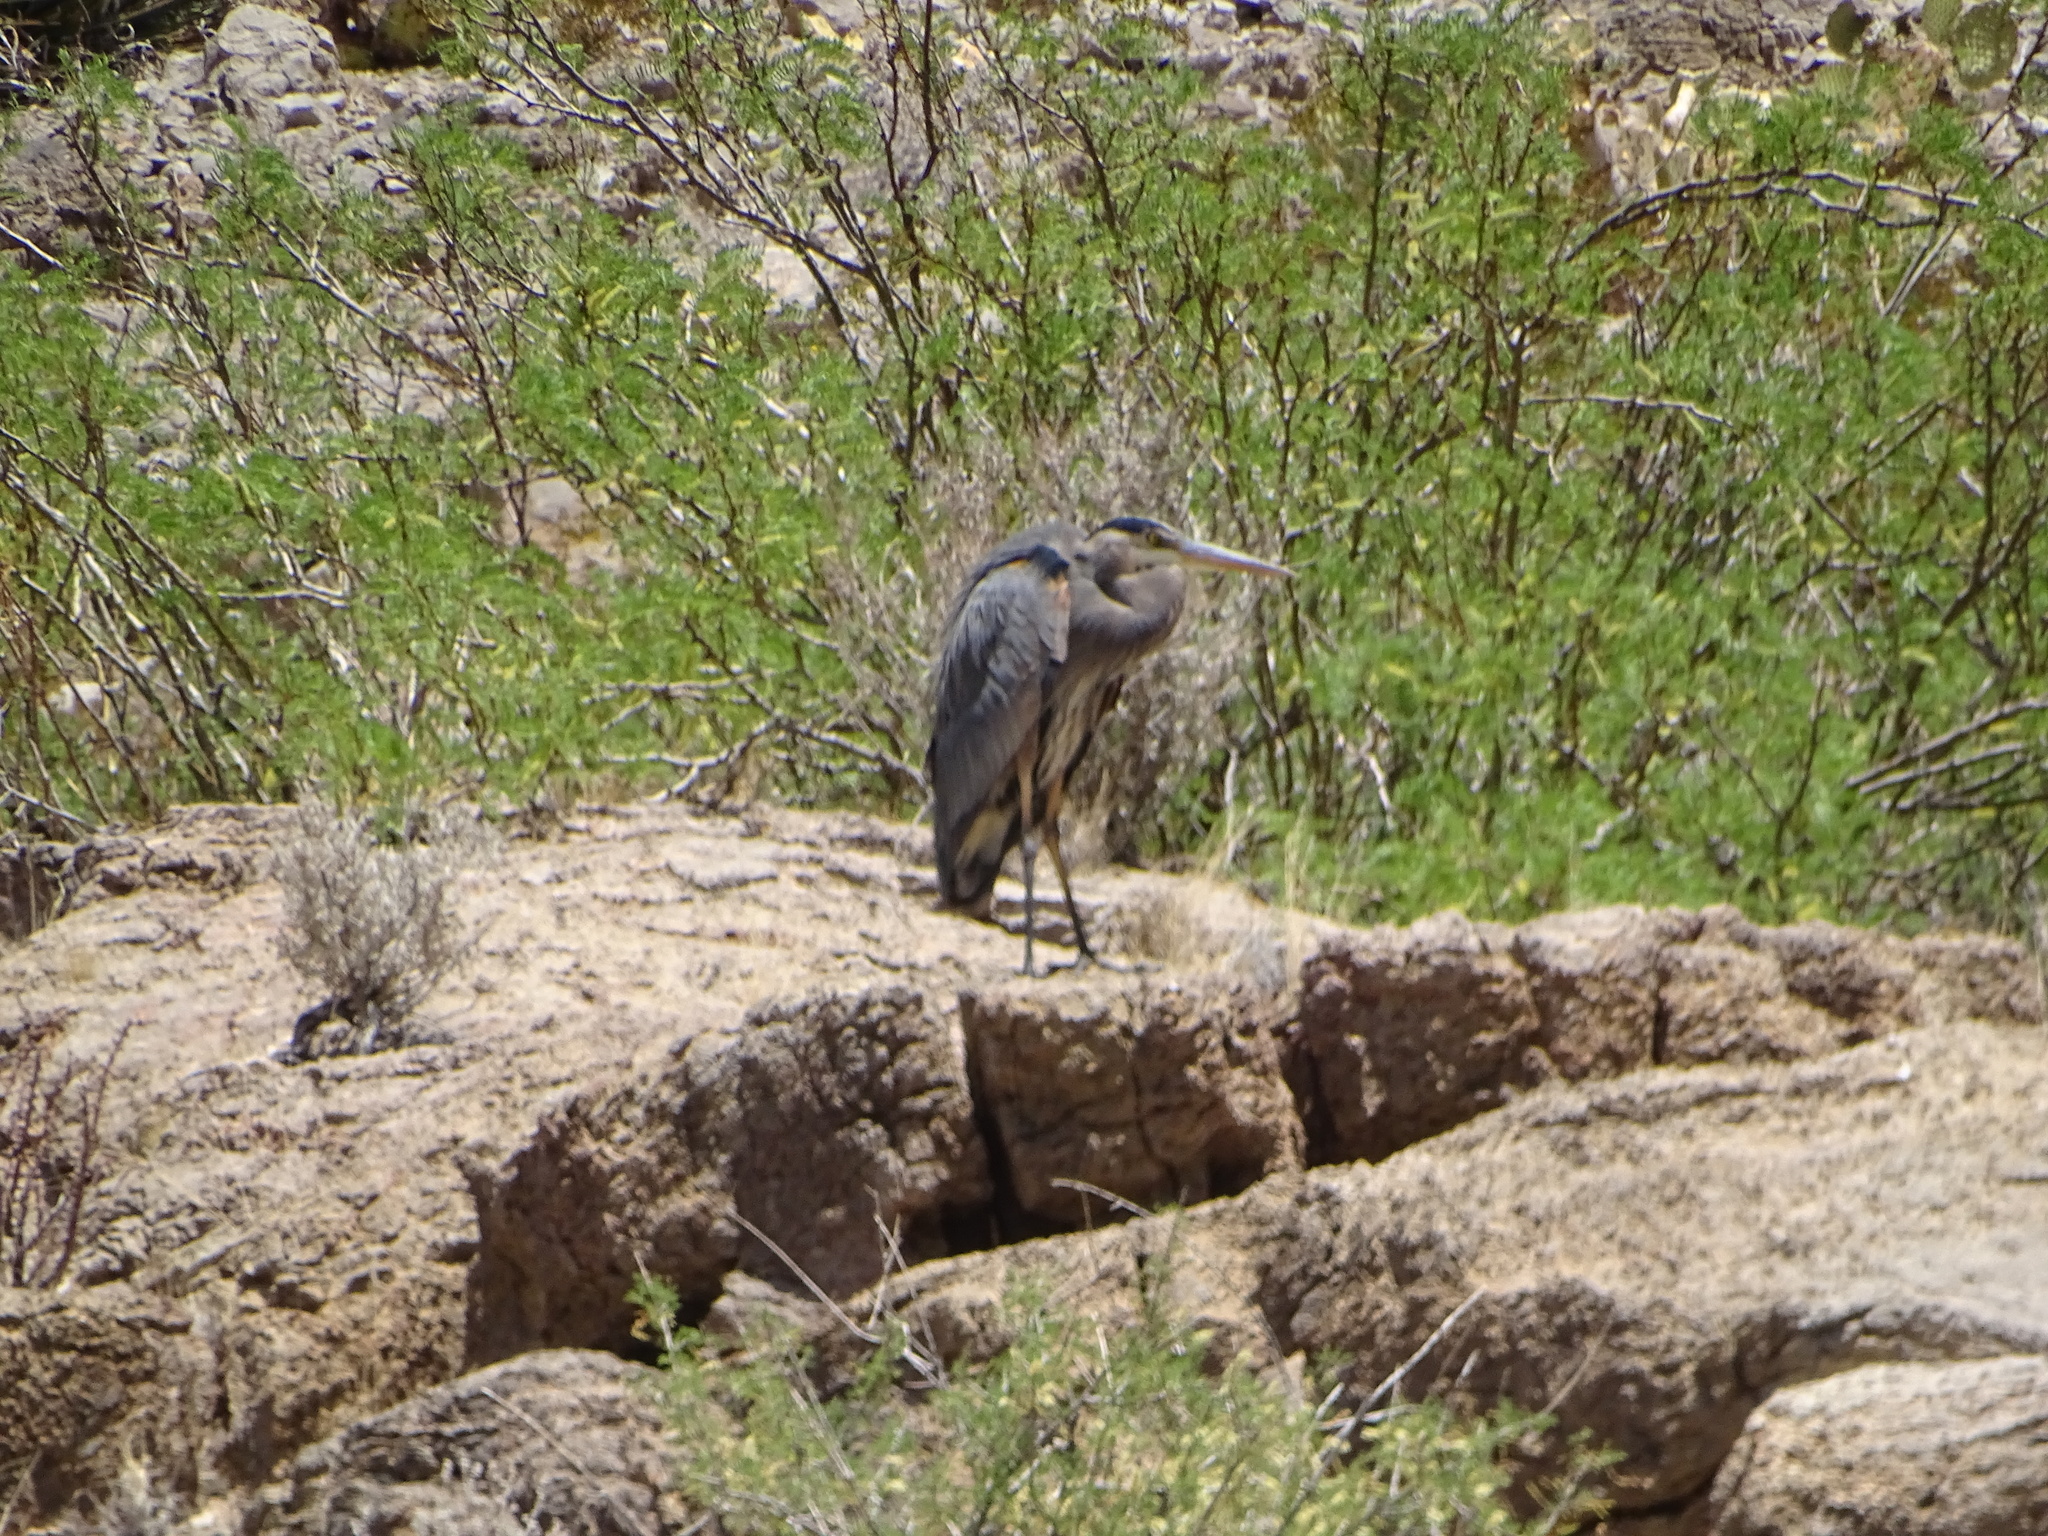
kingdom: Animalia
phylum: Chordata
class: Aves
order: Pelecaniformes
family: Ardeidae
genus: Ardea
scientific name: Ardea herodias
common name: Great blue heron
